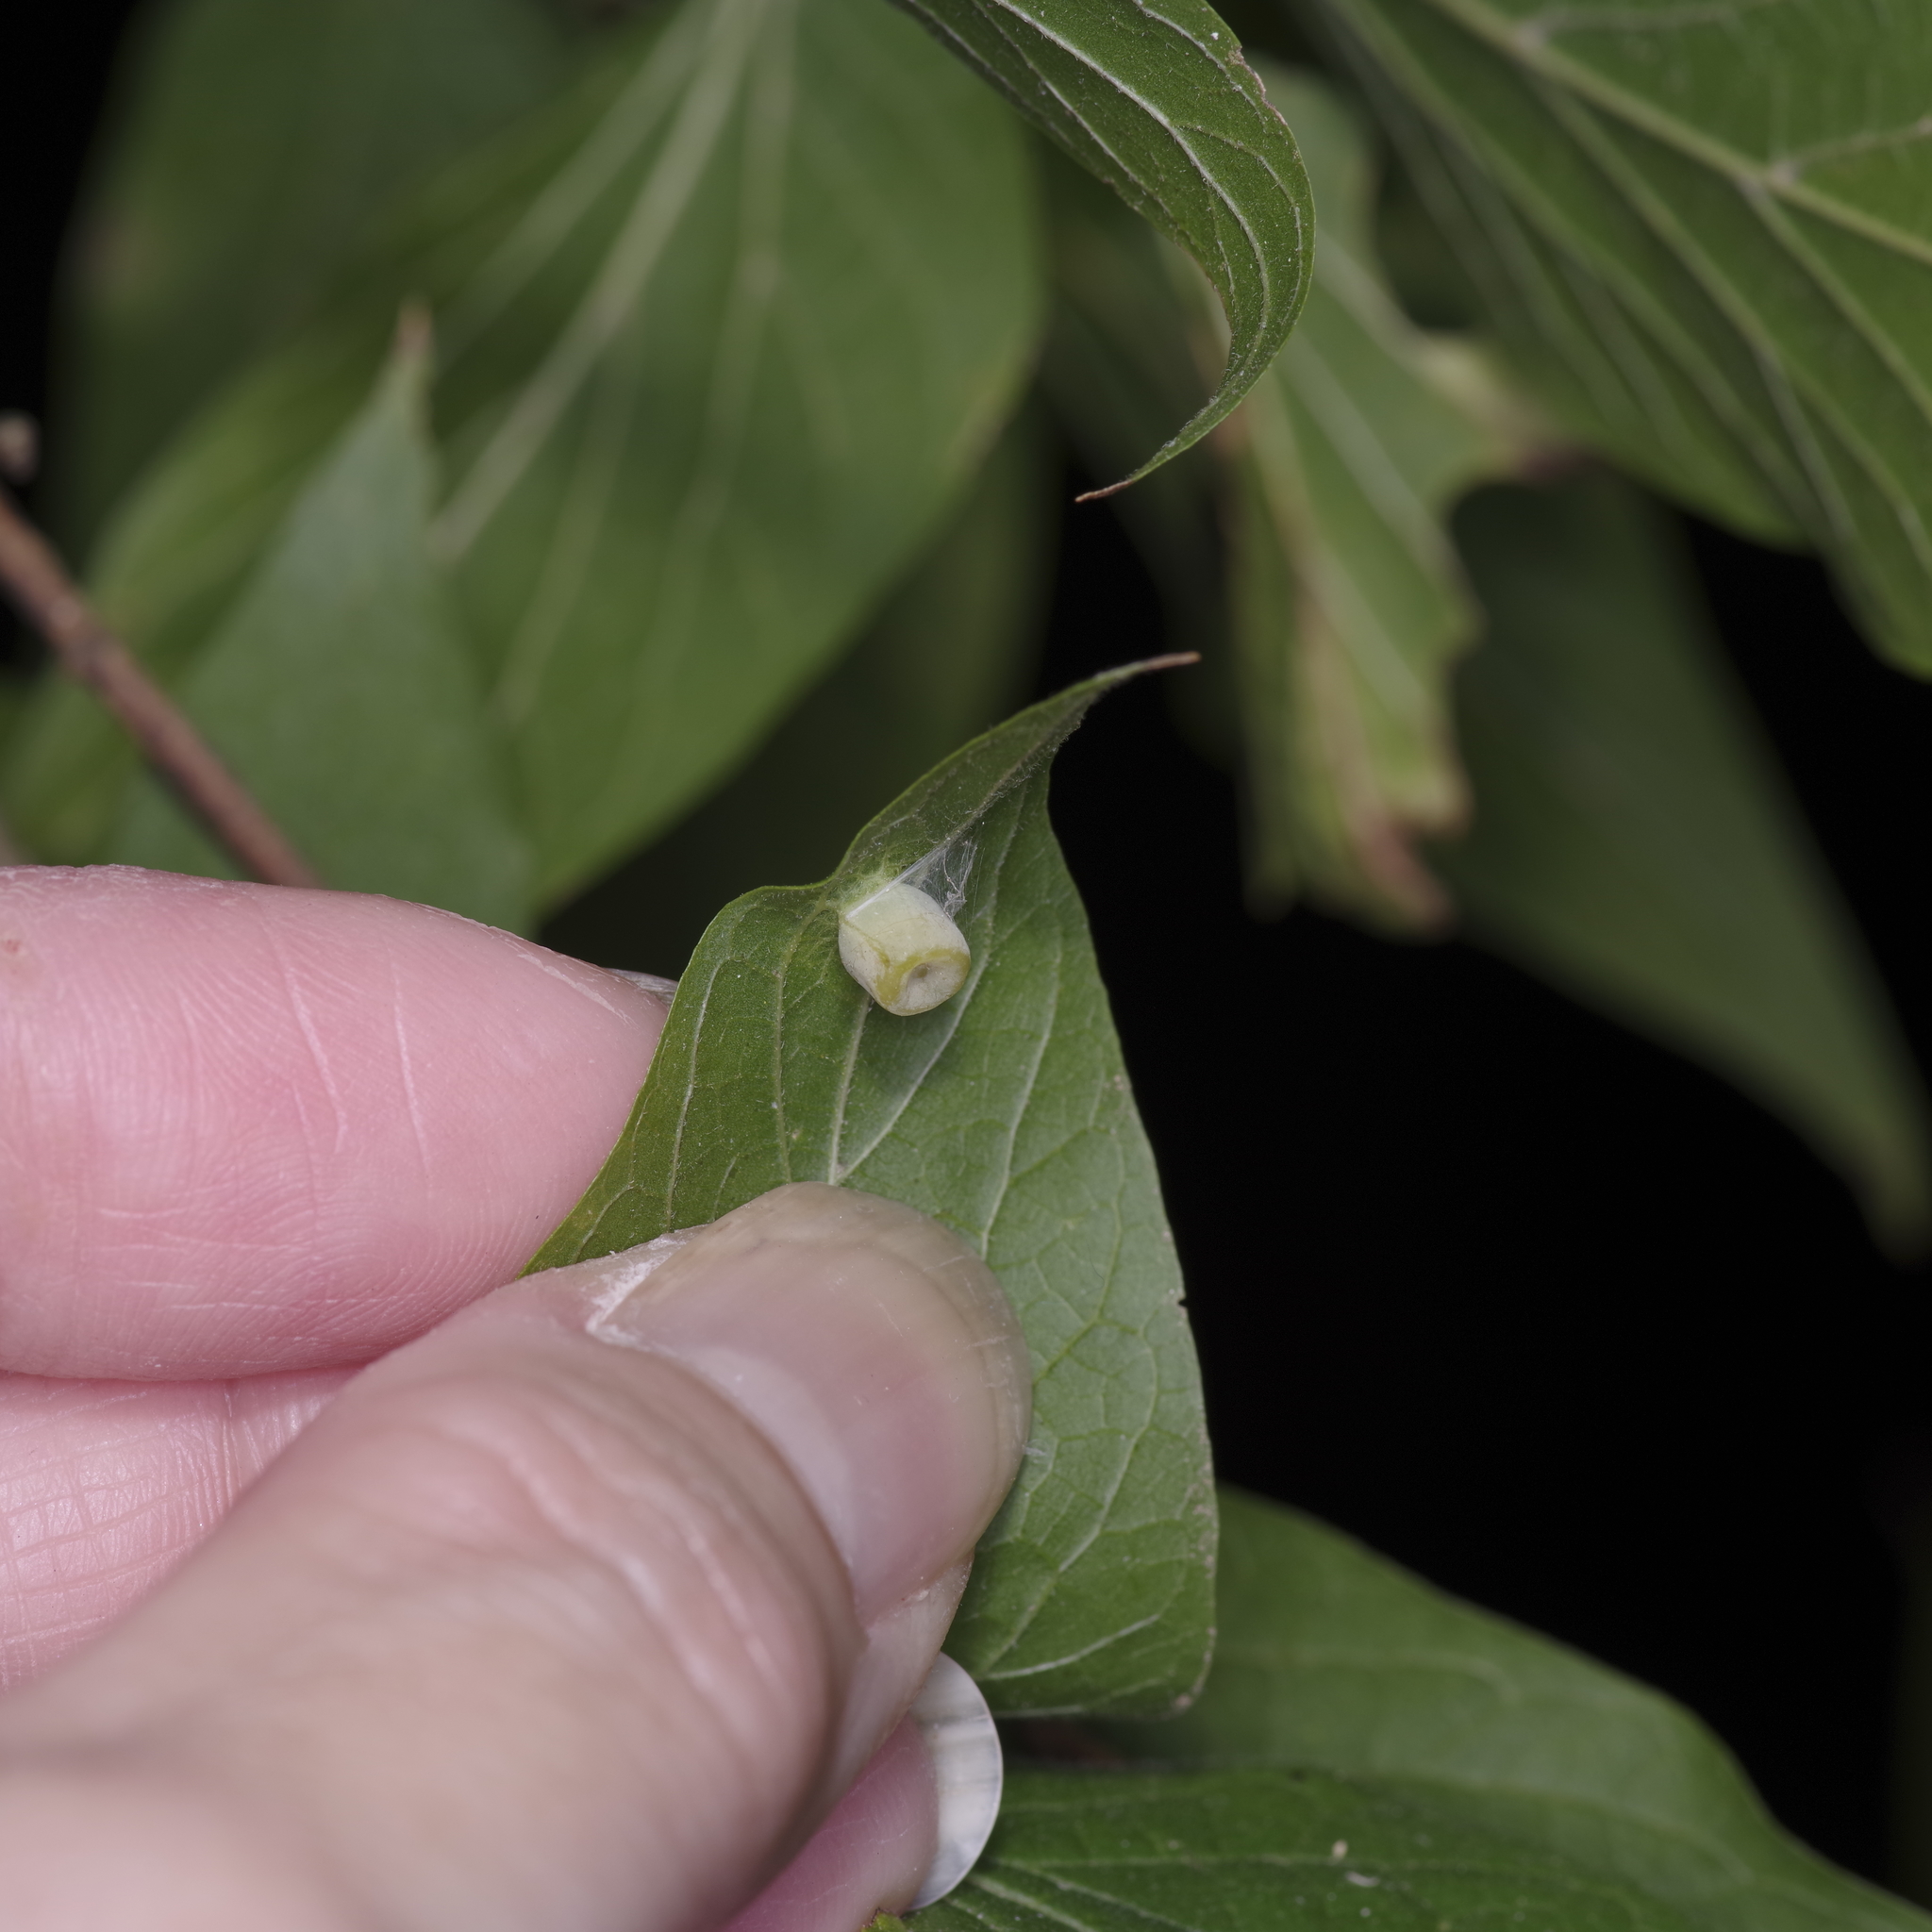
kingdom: Animalia
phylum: Arthropoda
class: Insecta
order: Hemiptera
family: Aphalaridae
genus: Pachypsylla
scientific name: Pachypsylla celtidismamma
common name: Hackberry nipplegall psyllid
